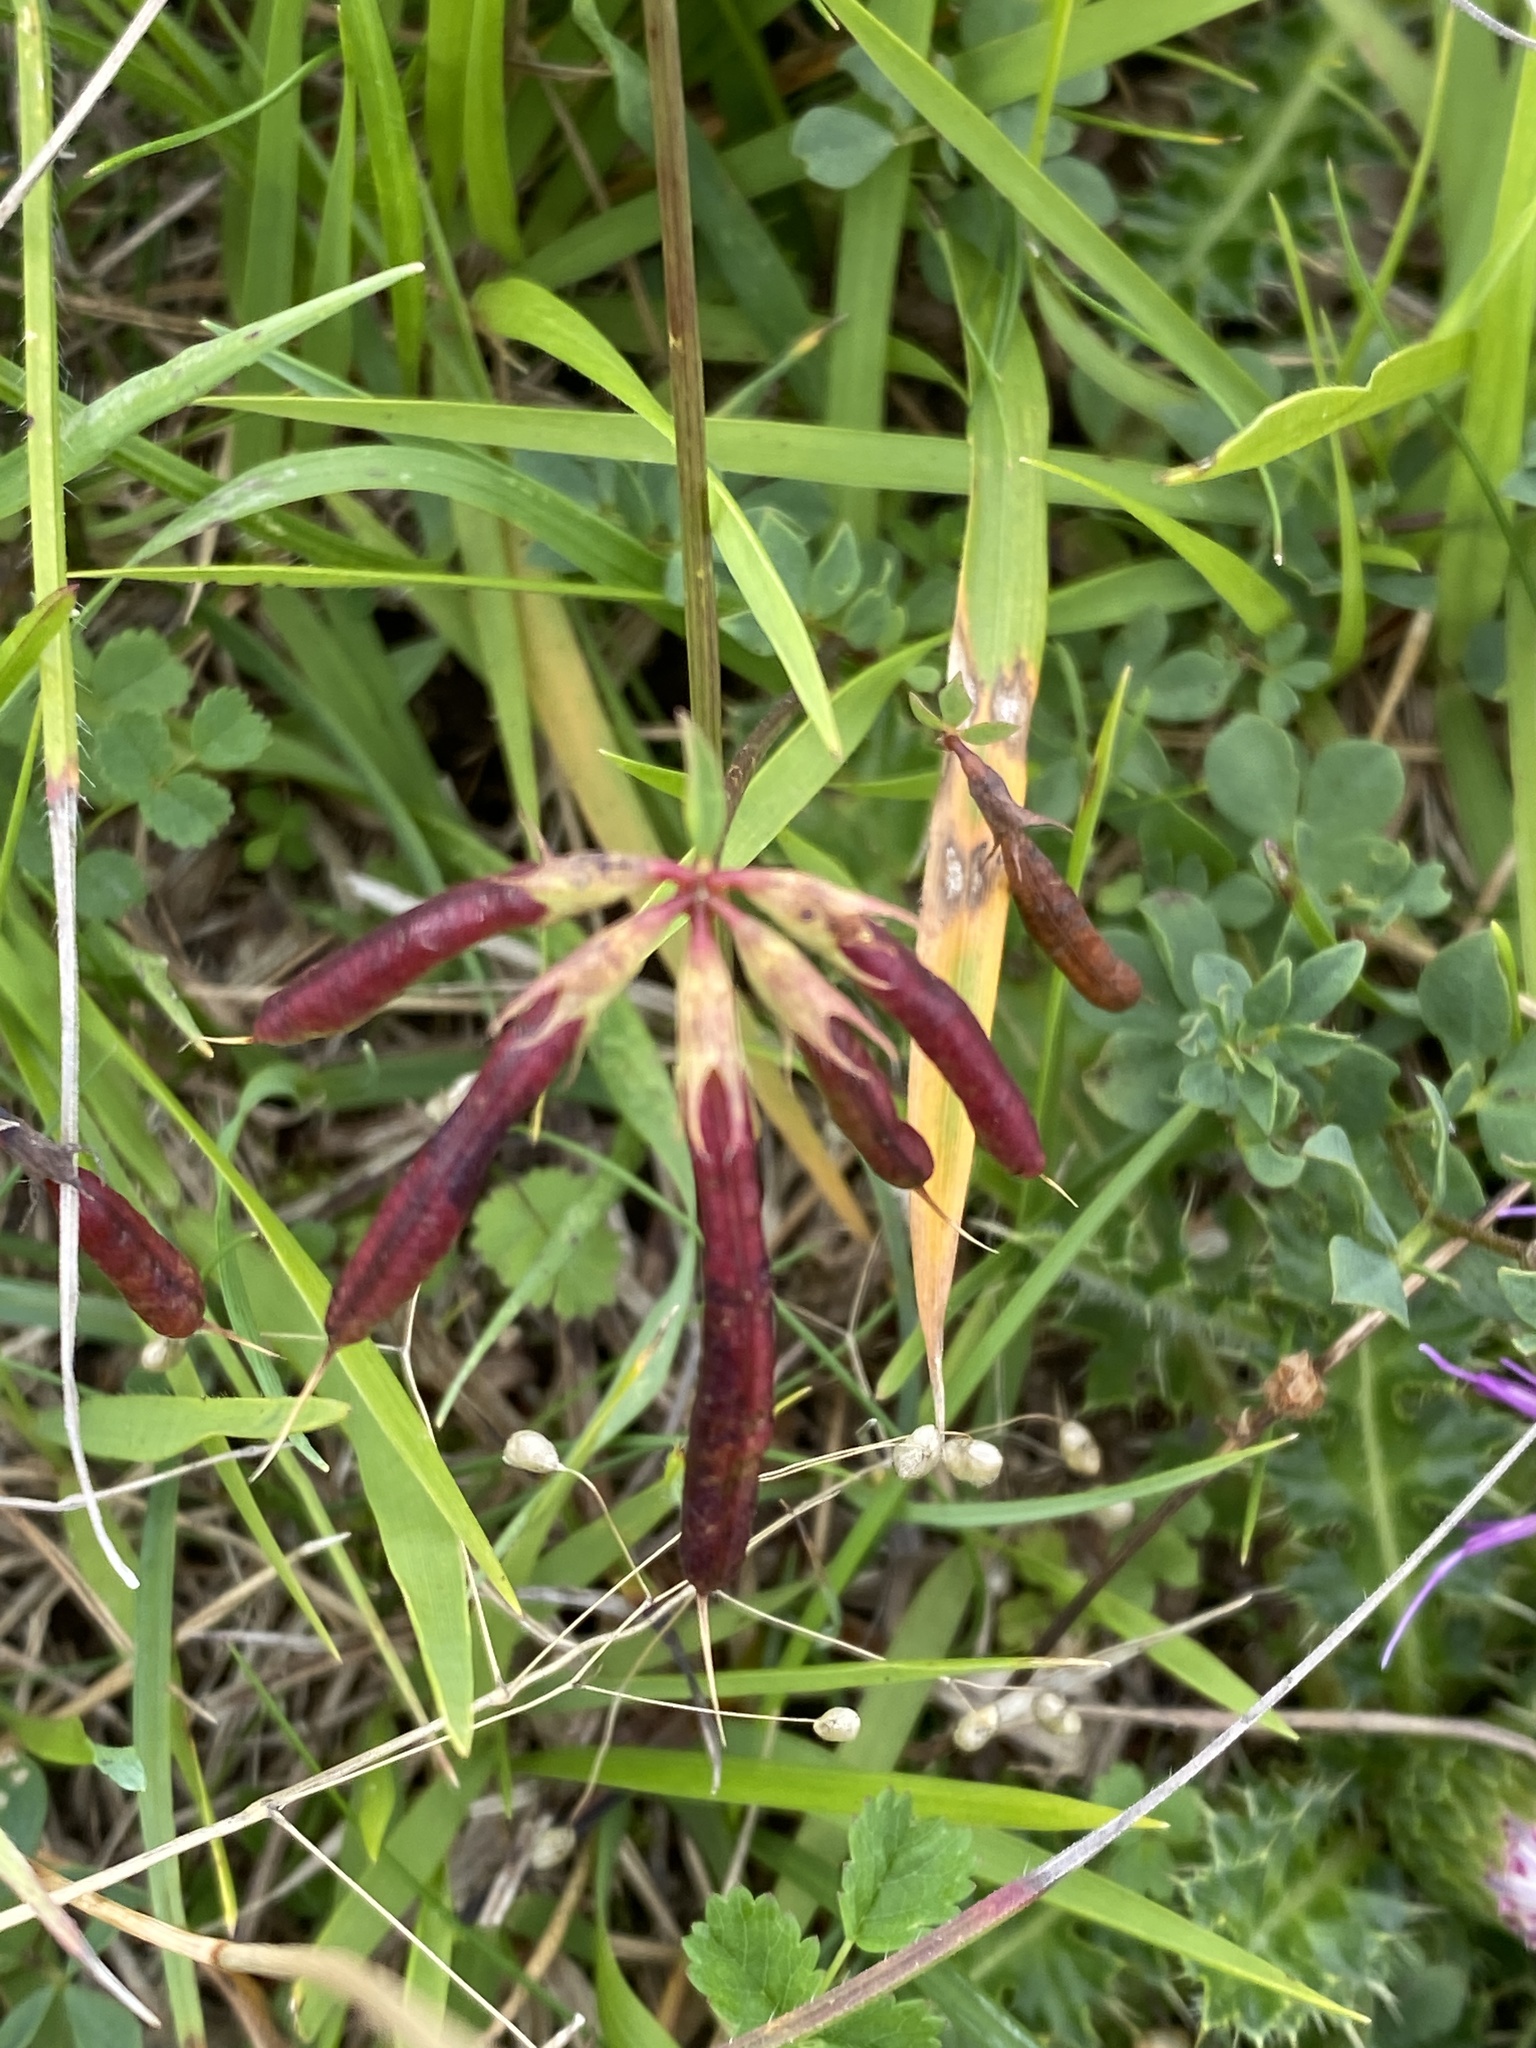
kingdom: Plantae
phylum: Tracheophyta
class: Magnoliopsida
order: Fabales
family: Fabaceae
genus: Lotus
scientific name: Lotus corniculatus
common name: Common bird's-foot-trefoil
